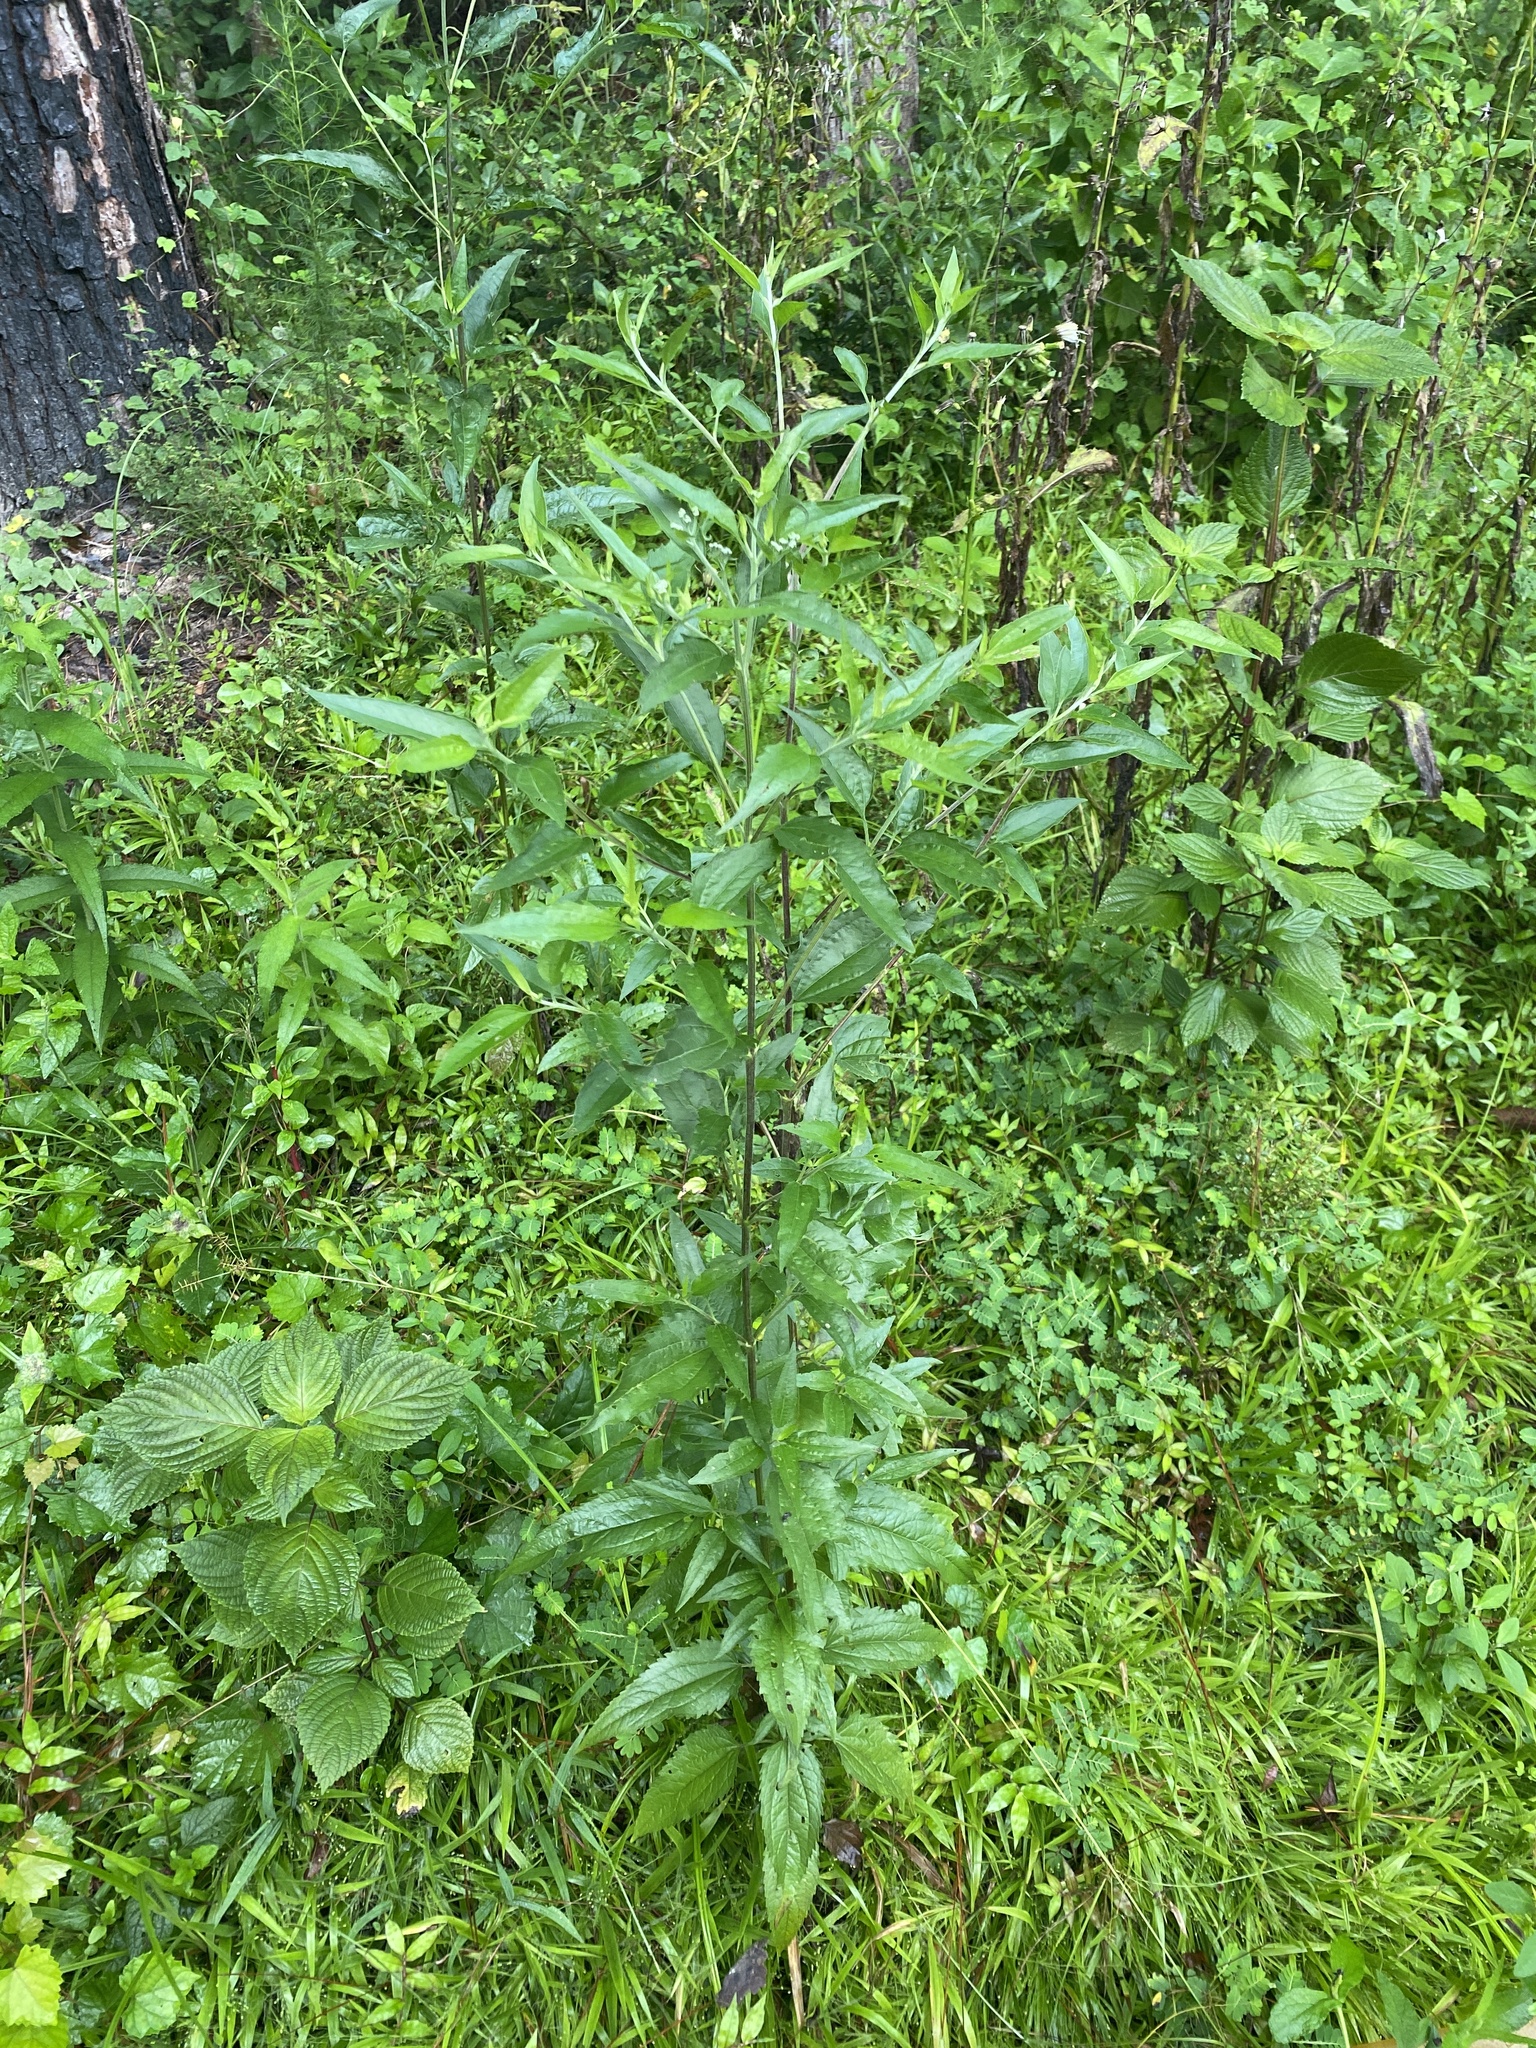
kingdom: Plantae
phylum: Tracheophyta
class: Magnoliopsida
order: Asterales
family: Asteraceae
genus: Eupatorium
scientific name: Eupatorium serotinum
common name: Late boneset
